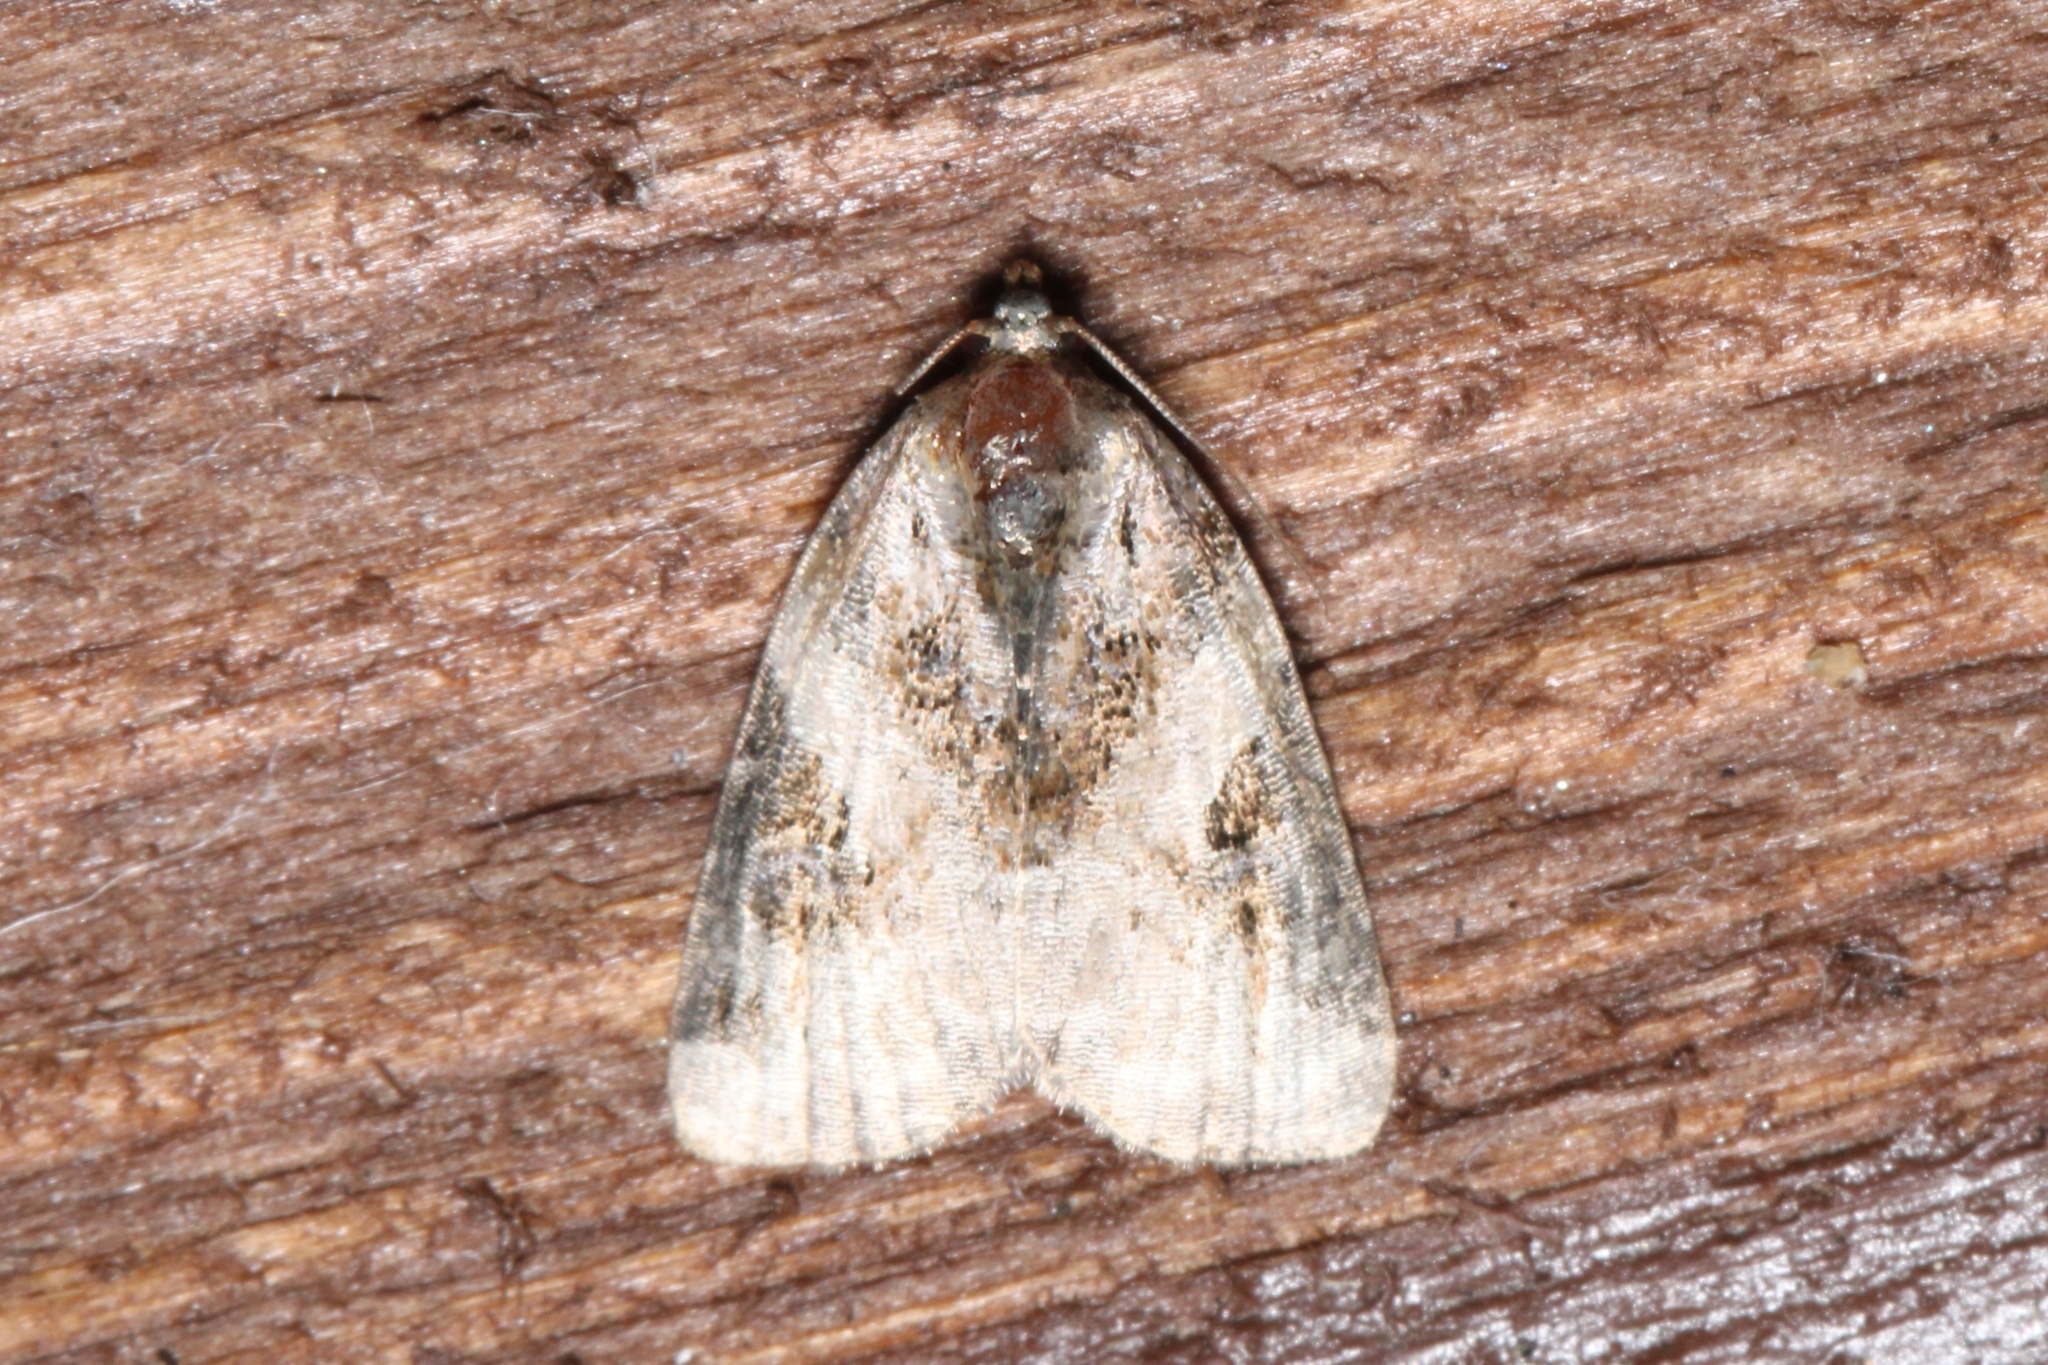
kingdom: Animalia
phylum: Arthropoda
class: Insecta
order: Lepidoptera
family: Noctuidae
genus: Pseudeustrotia
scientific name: Pseudeustrotia carneola
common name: Pink-barred lithacodia moth
